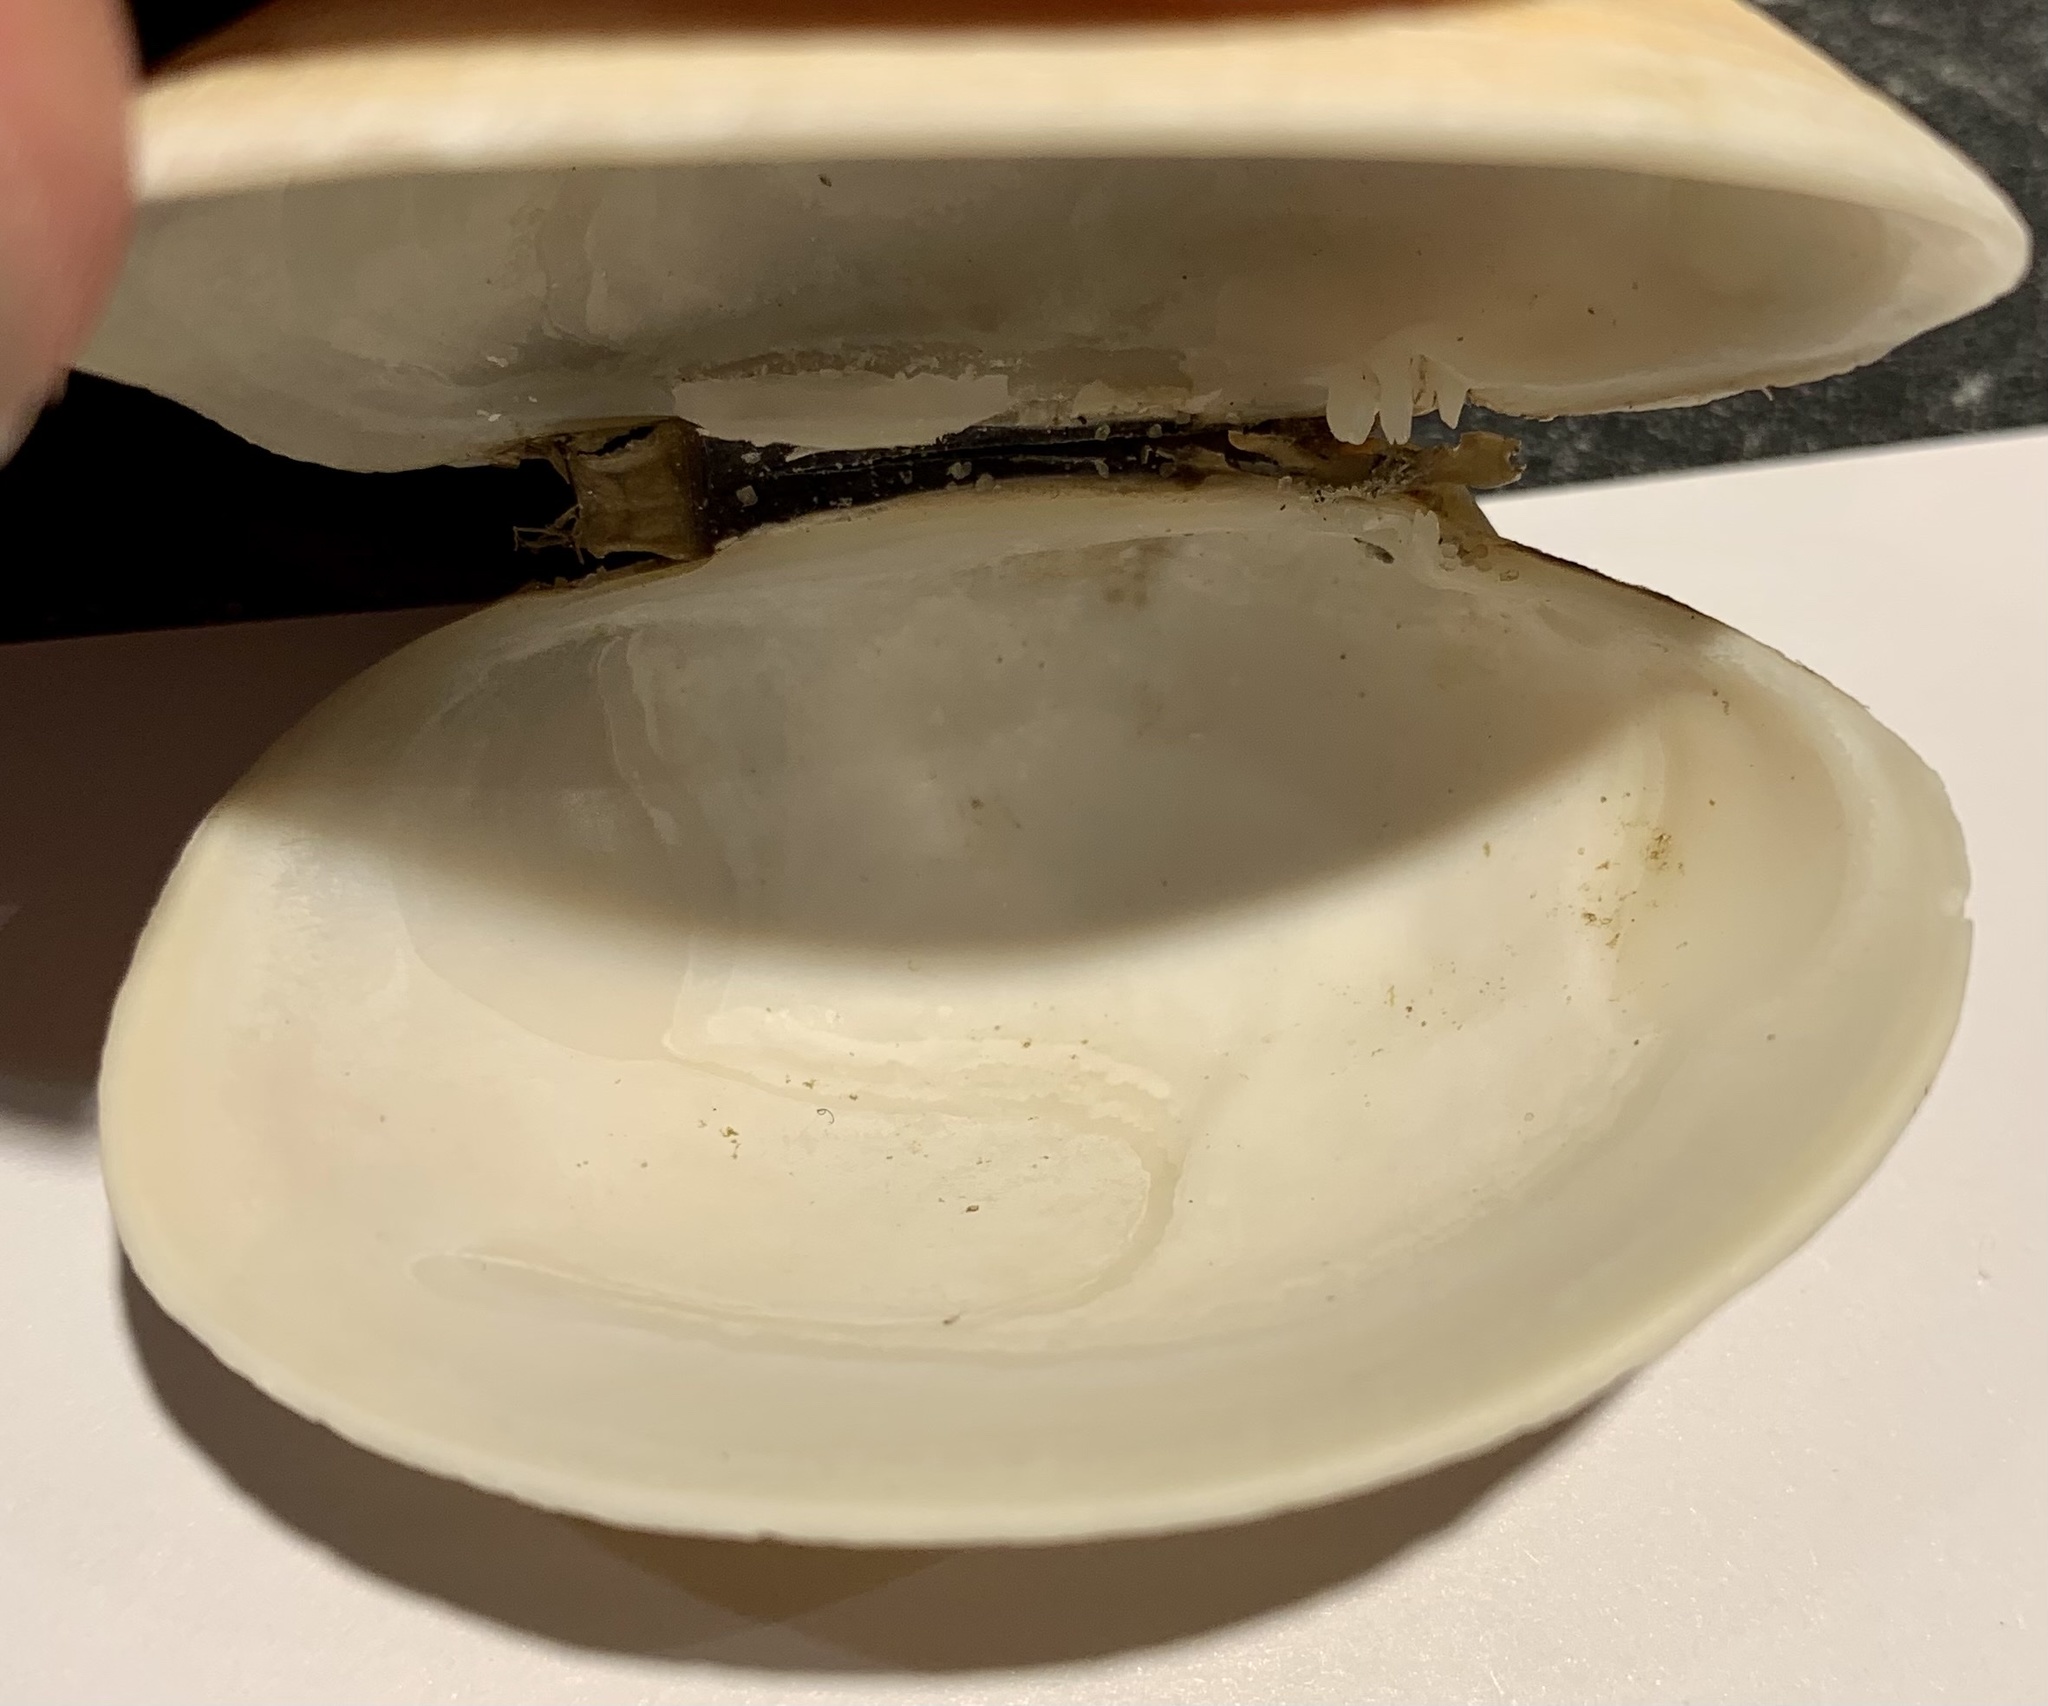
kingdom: Animalia
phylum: Mollusca
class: Bivalvia
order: Venerida
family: Veneridae
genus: Venerupis
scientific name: Venerupis corrugata
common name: Pullet carpet shell
